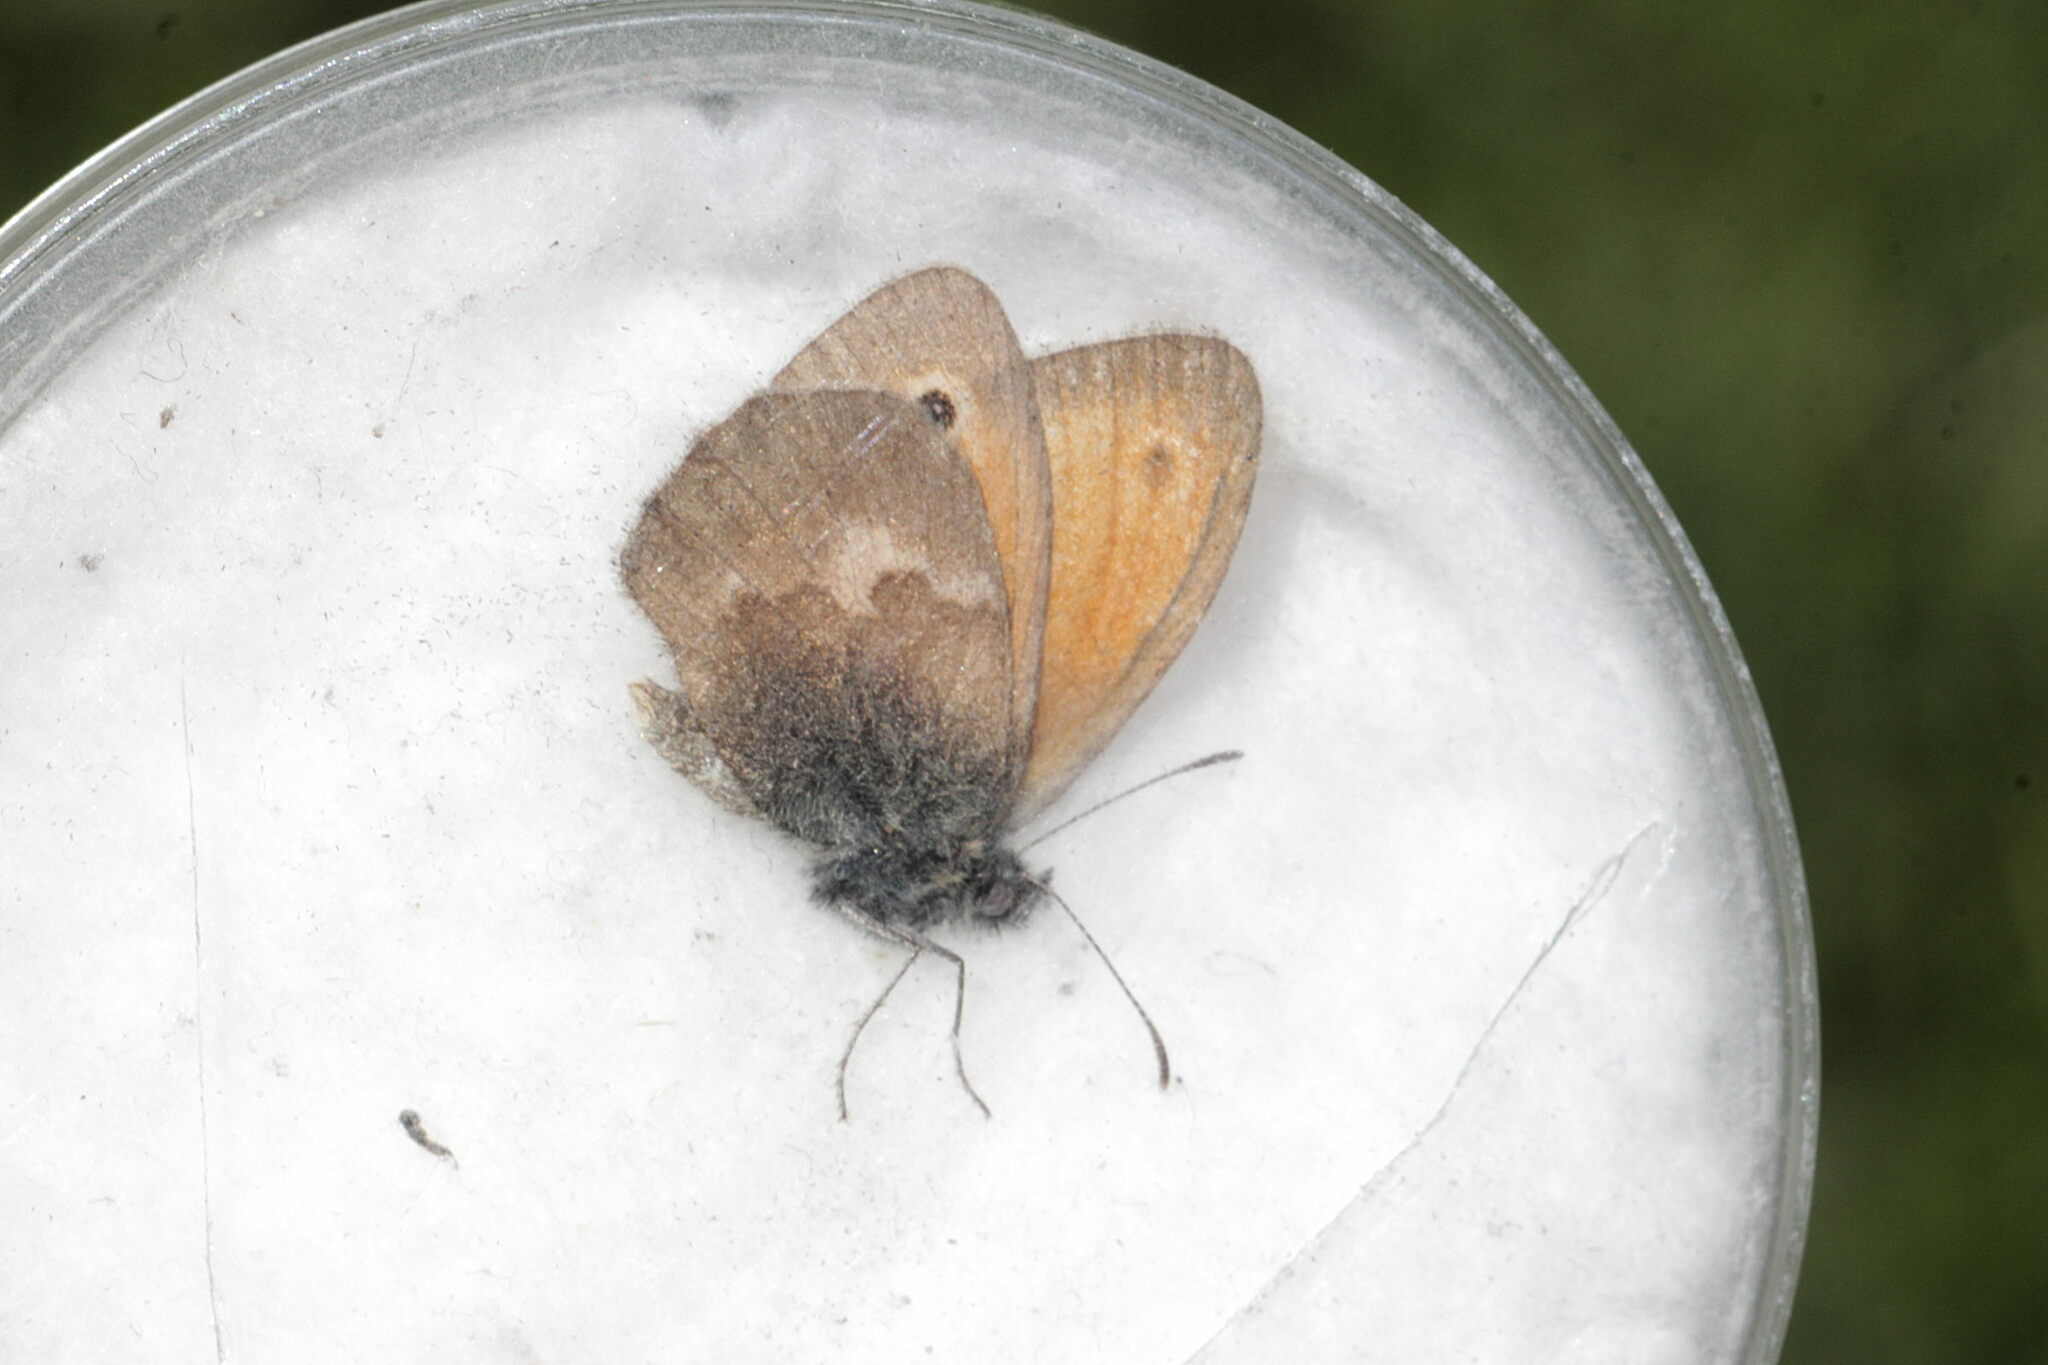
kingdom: Animalia
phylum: Arthropoda
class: Insecta
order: Lepidoptera
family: Nymphalidae
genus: Coenonympha
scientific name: Coenonympha pamphilus
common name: Small heath
